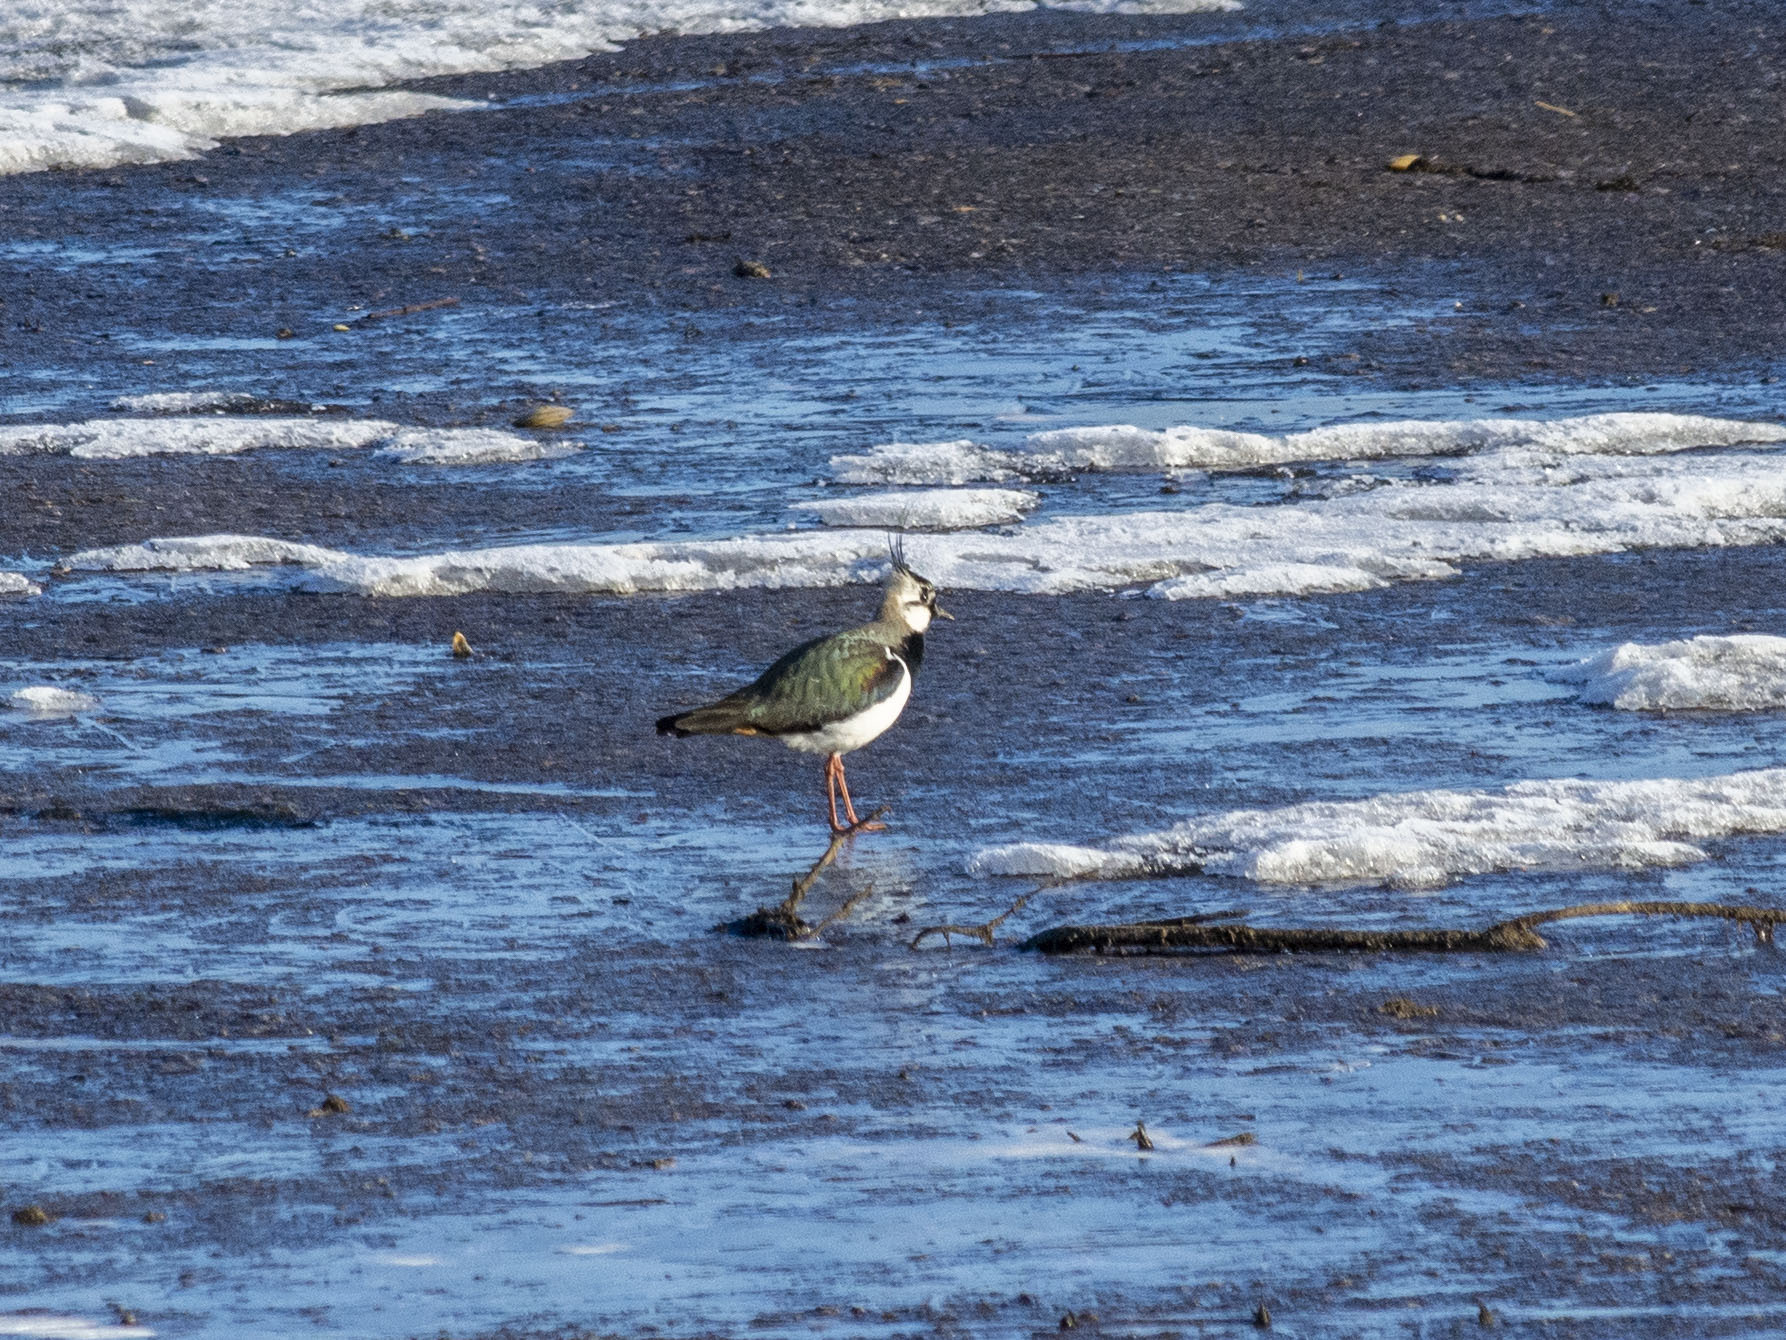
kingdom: Animalia
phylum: Chordata
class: Aves
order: Charadriiformes
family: Charadriidae
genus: Vanellus
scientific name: Vanellus vanellus
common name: Northern lapwing
